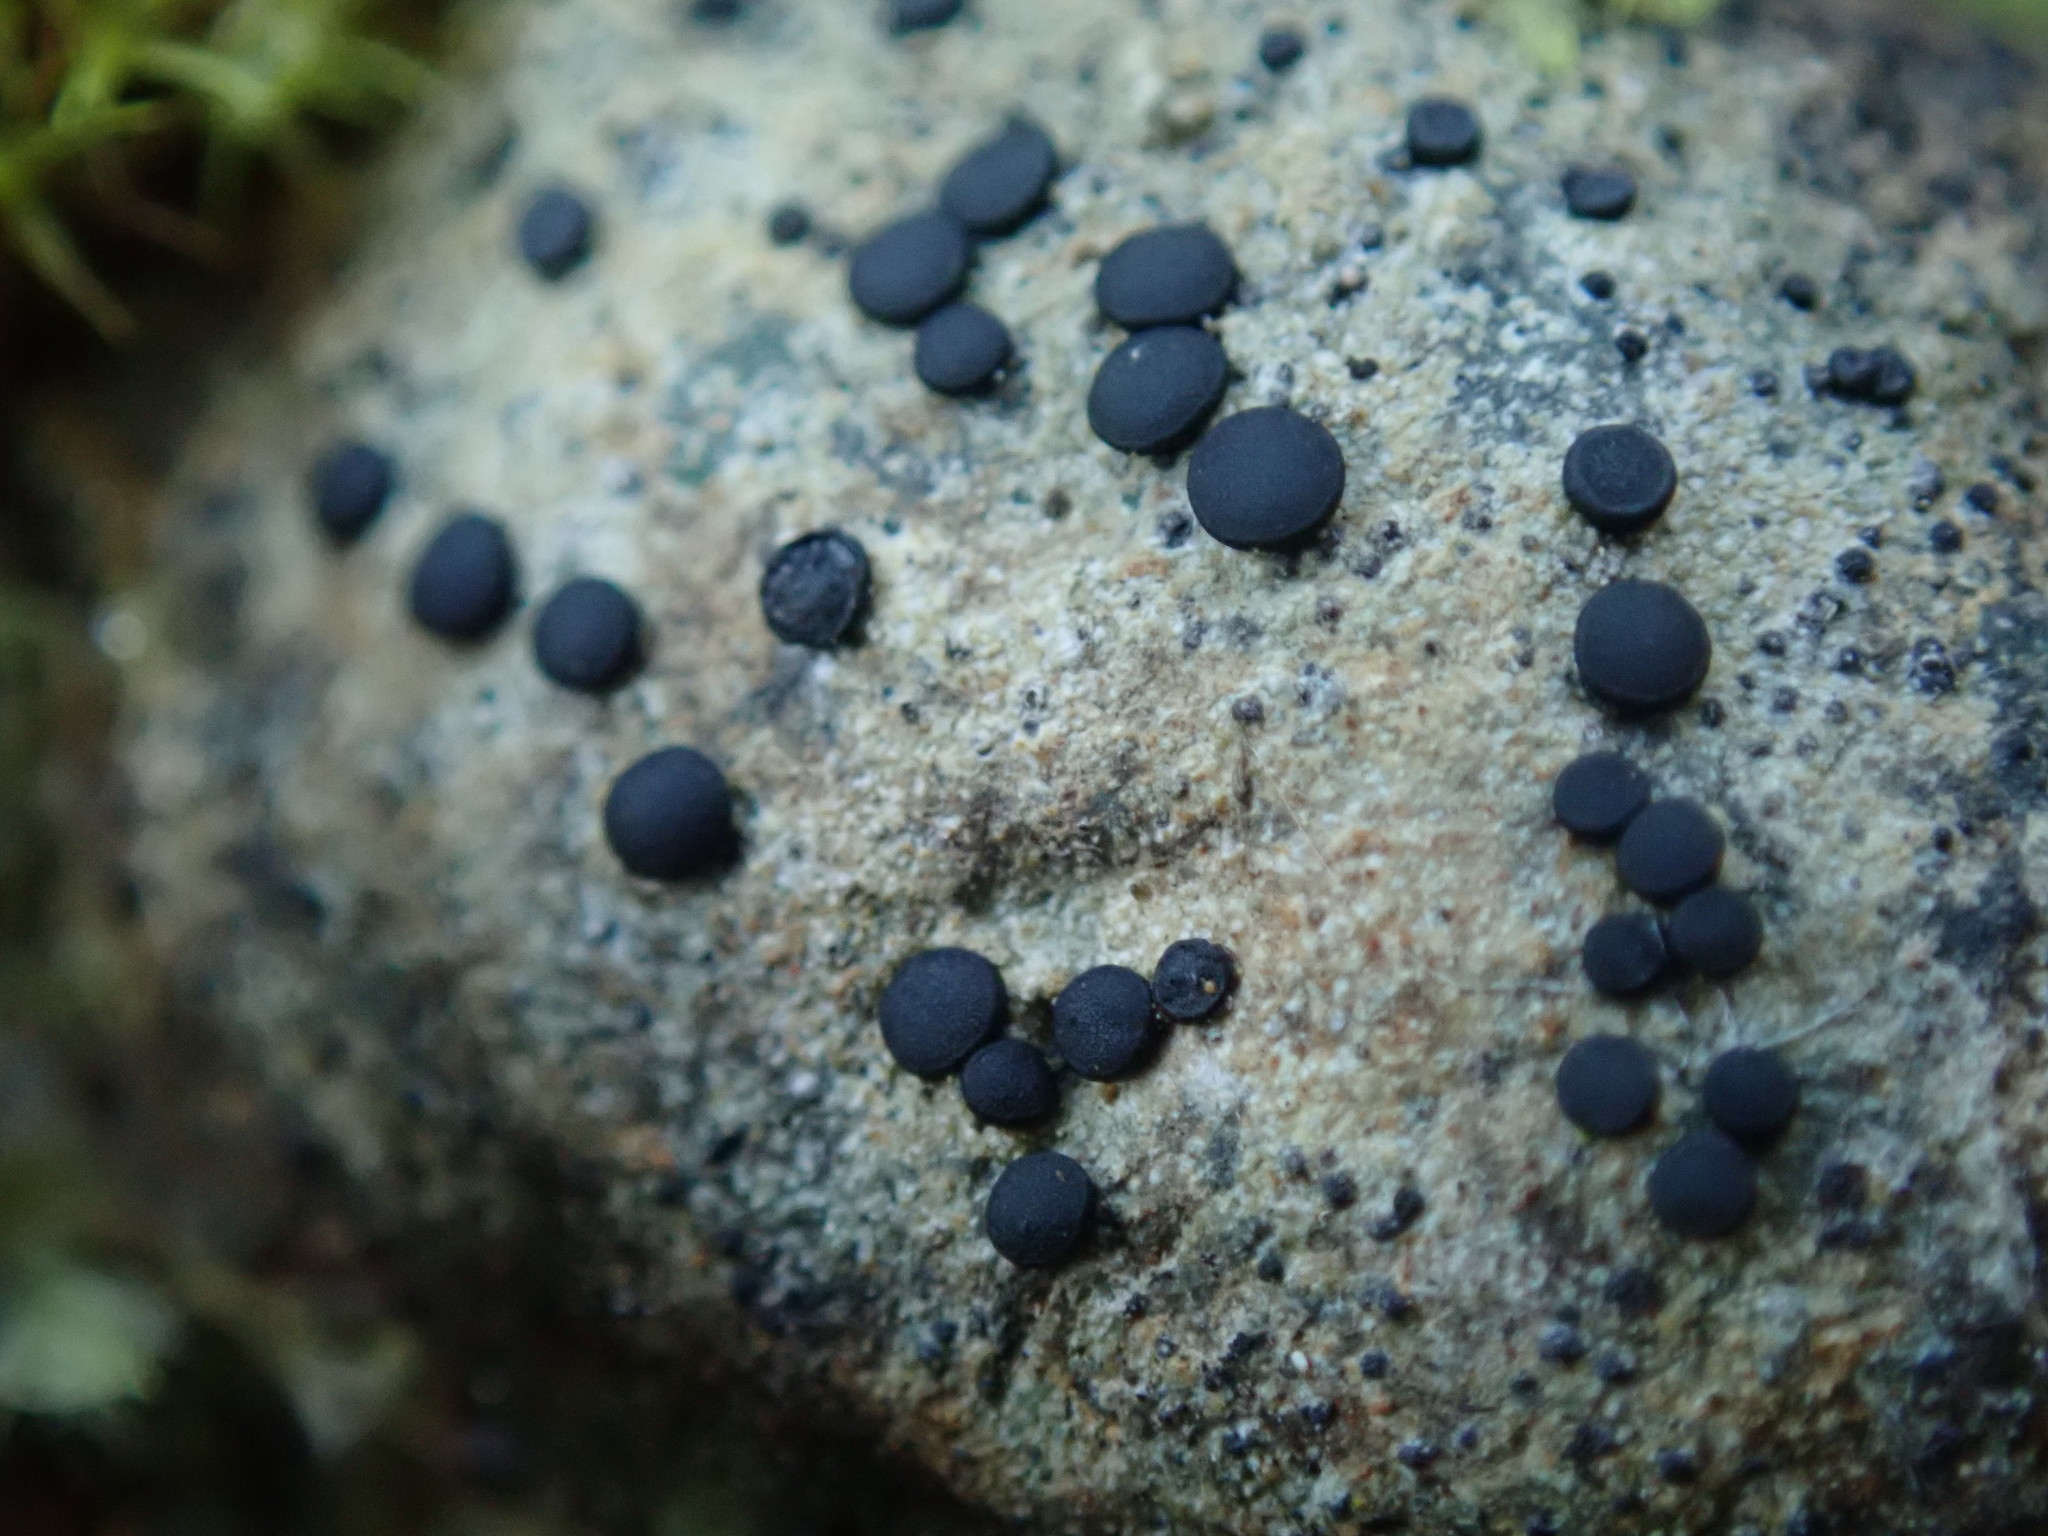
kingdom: Fungi
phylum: Ascomycota
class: Lecanoromycetes
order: Lecideales
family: Lecideaceae
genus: Porpidia
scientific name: Porpidia thomsonii
